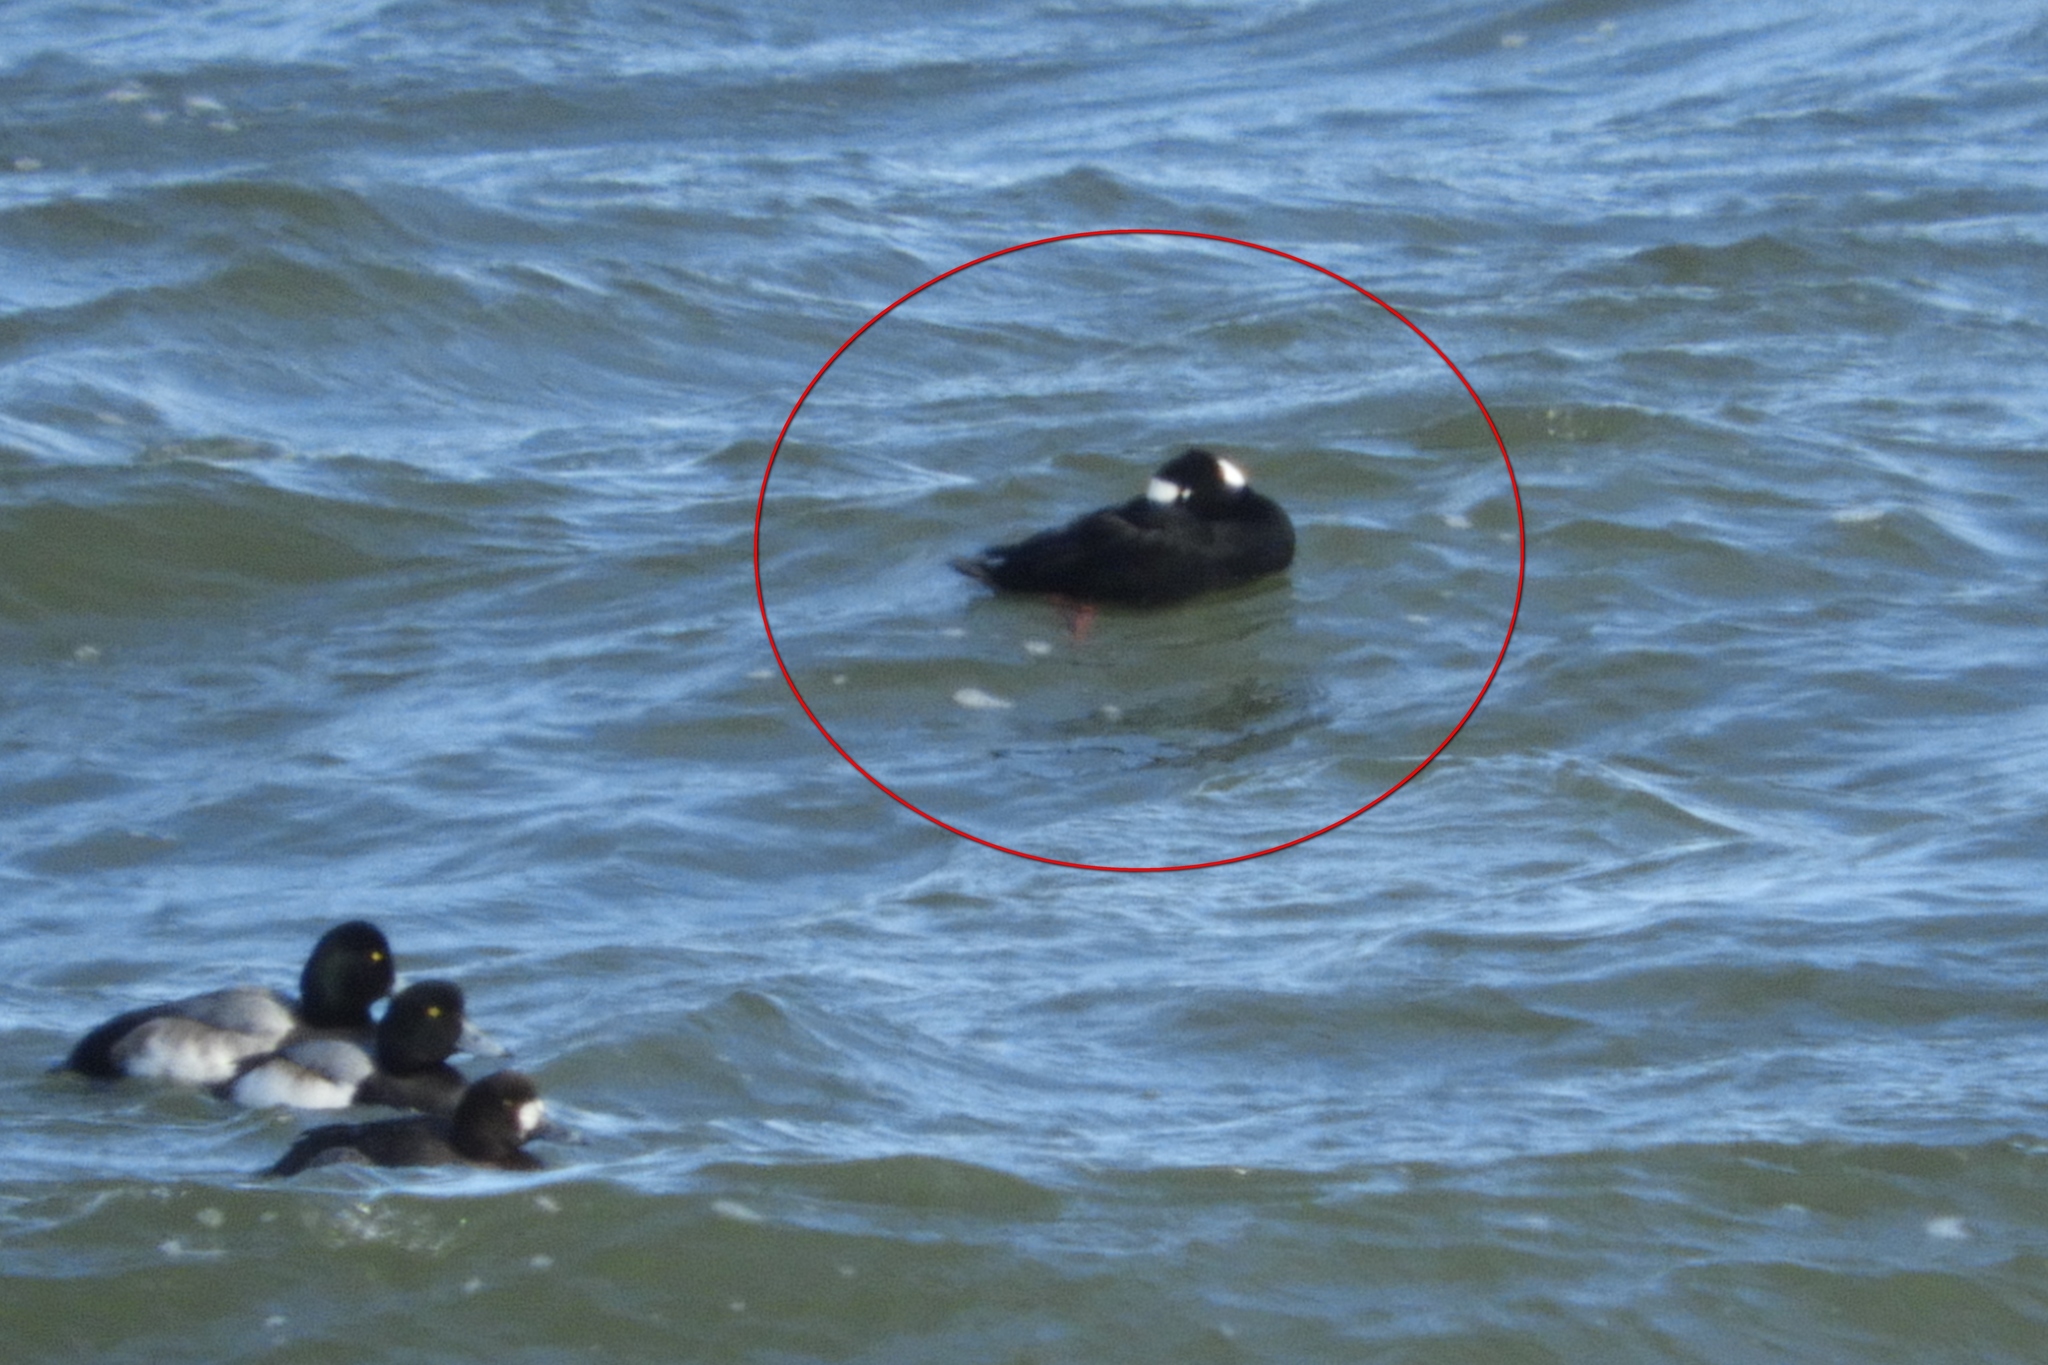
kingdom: Animalia
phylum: Chordata
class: Aves
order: Anseriformes
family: Anatidae
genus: Melanitta
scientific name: Melanitta perspicillata
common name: Surf scoter
